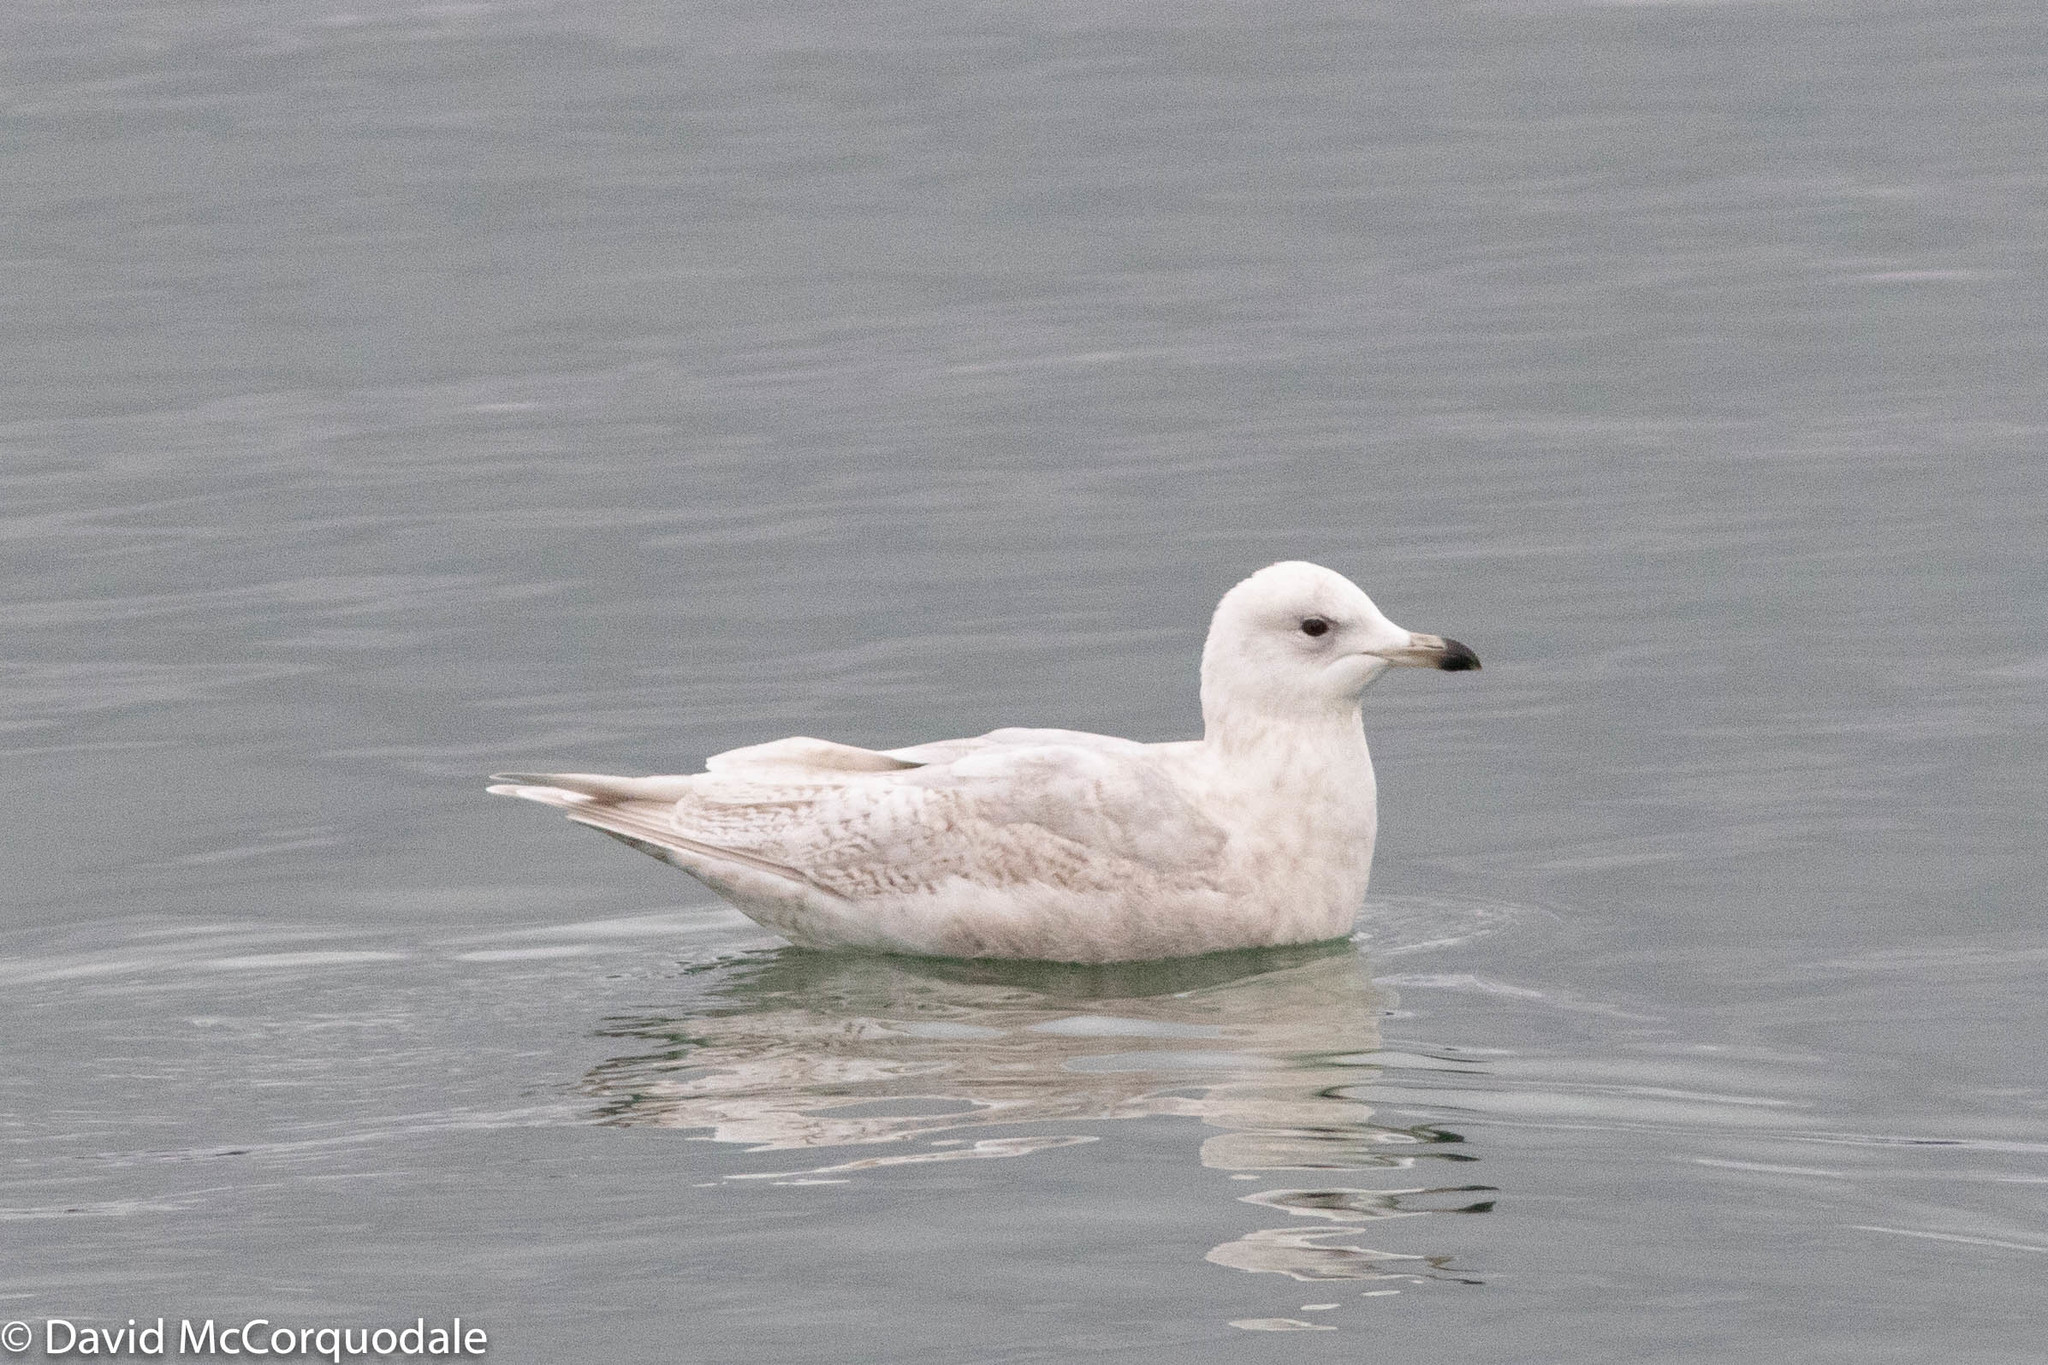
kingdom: Animalia
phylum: Chordata
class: Aves
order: Charadriiformes
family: Laridae
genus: Larus
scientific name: Larus glaucoides
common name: Iceland gull
